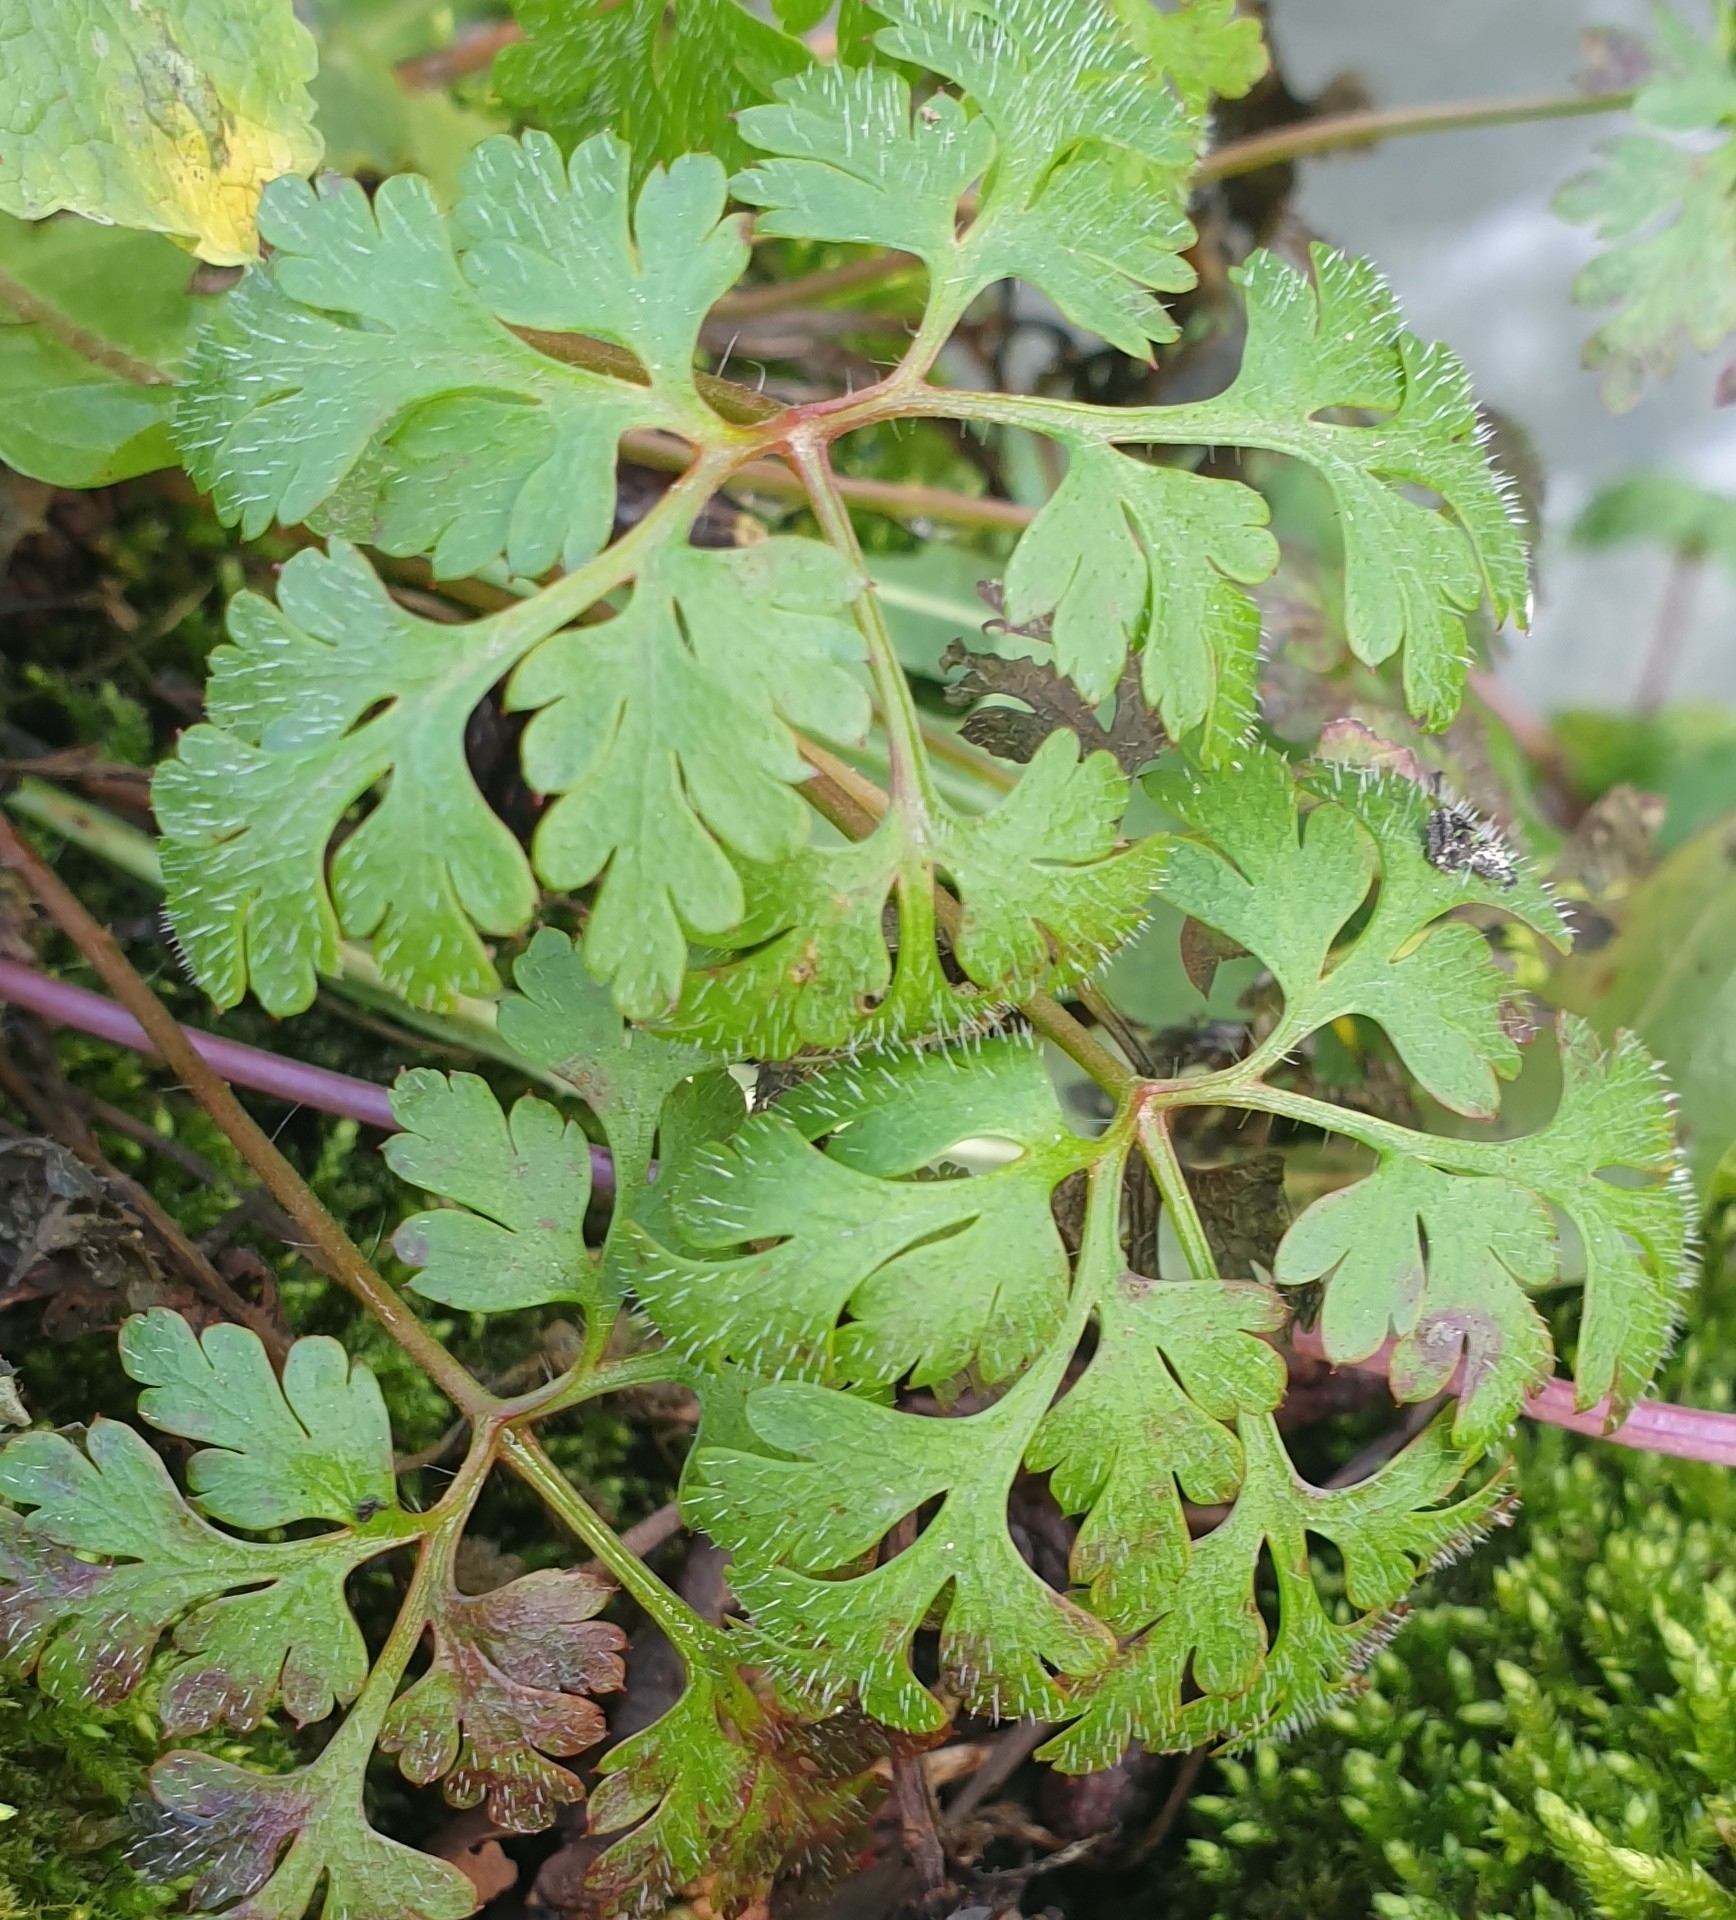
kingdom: Plantae
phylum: Tracheophyta
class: Magnoliopsida
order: Geraniales
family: Geraniaceae
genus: Geranium
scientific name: Geranium robertianum
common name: Herb-robert
